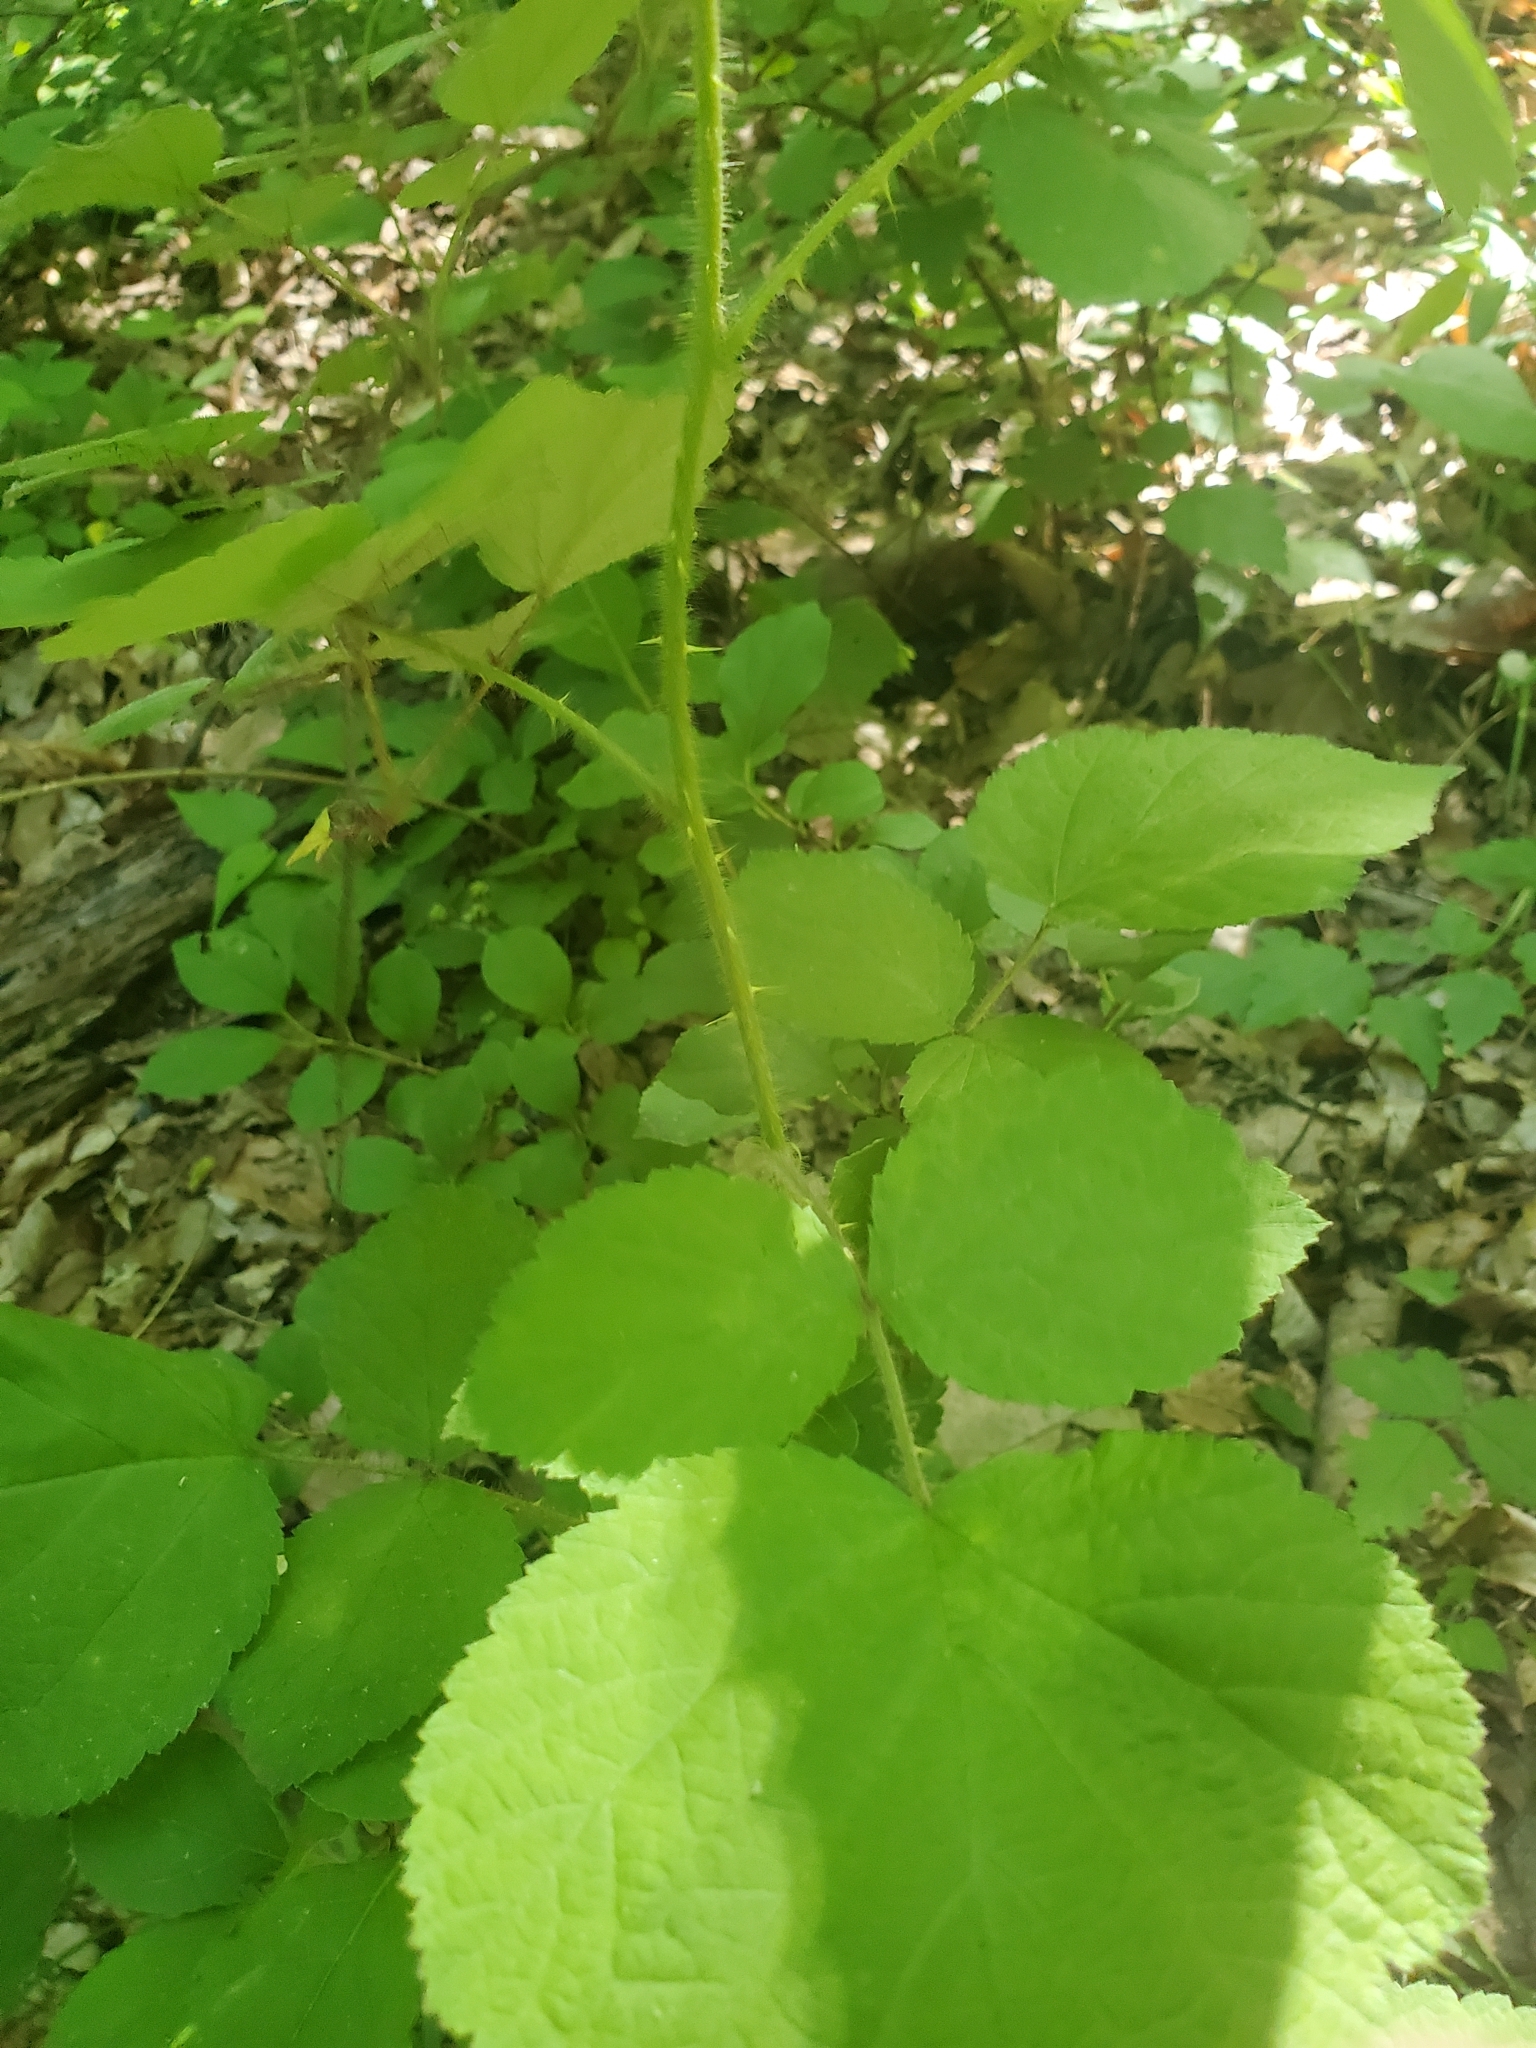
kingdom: Plantae
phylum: Tracheophyta
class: Magnoliopsida
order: Rosales
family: Rosaceae
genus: Rubus
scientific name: Rubus phoenicolasius
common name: Japanese wineberry
